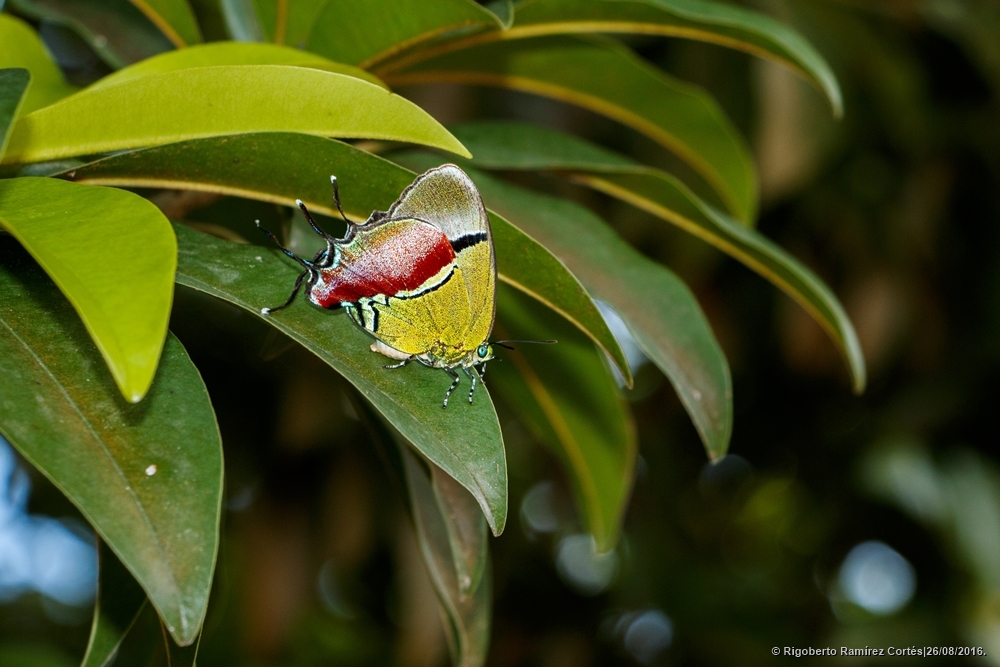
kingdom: Animalia
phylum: Arthropoda
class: Insecta
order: Lepidoptera
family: Lycaenidae
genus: Evenus
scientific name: Evenus regalis
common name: Regal hairstreak
